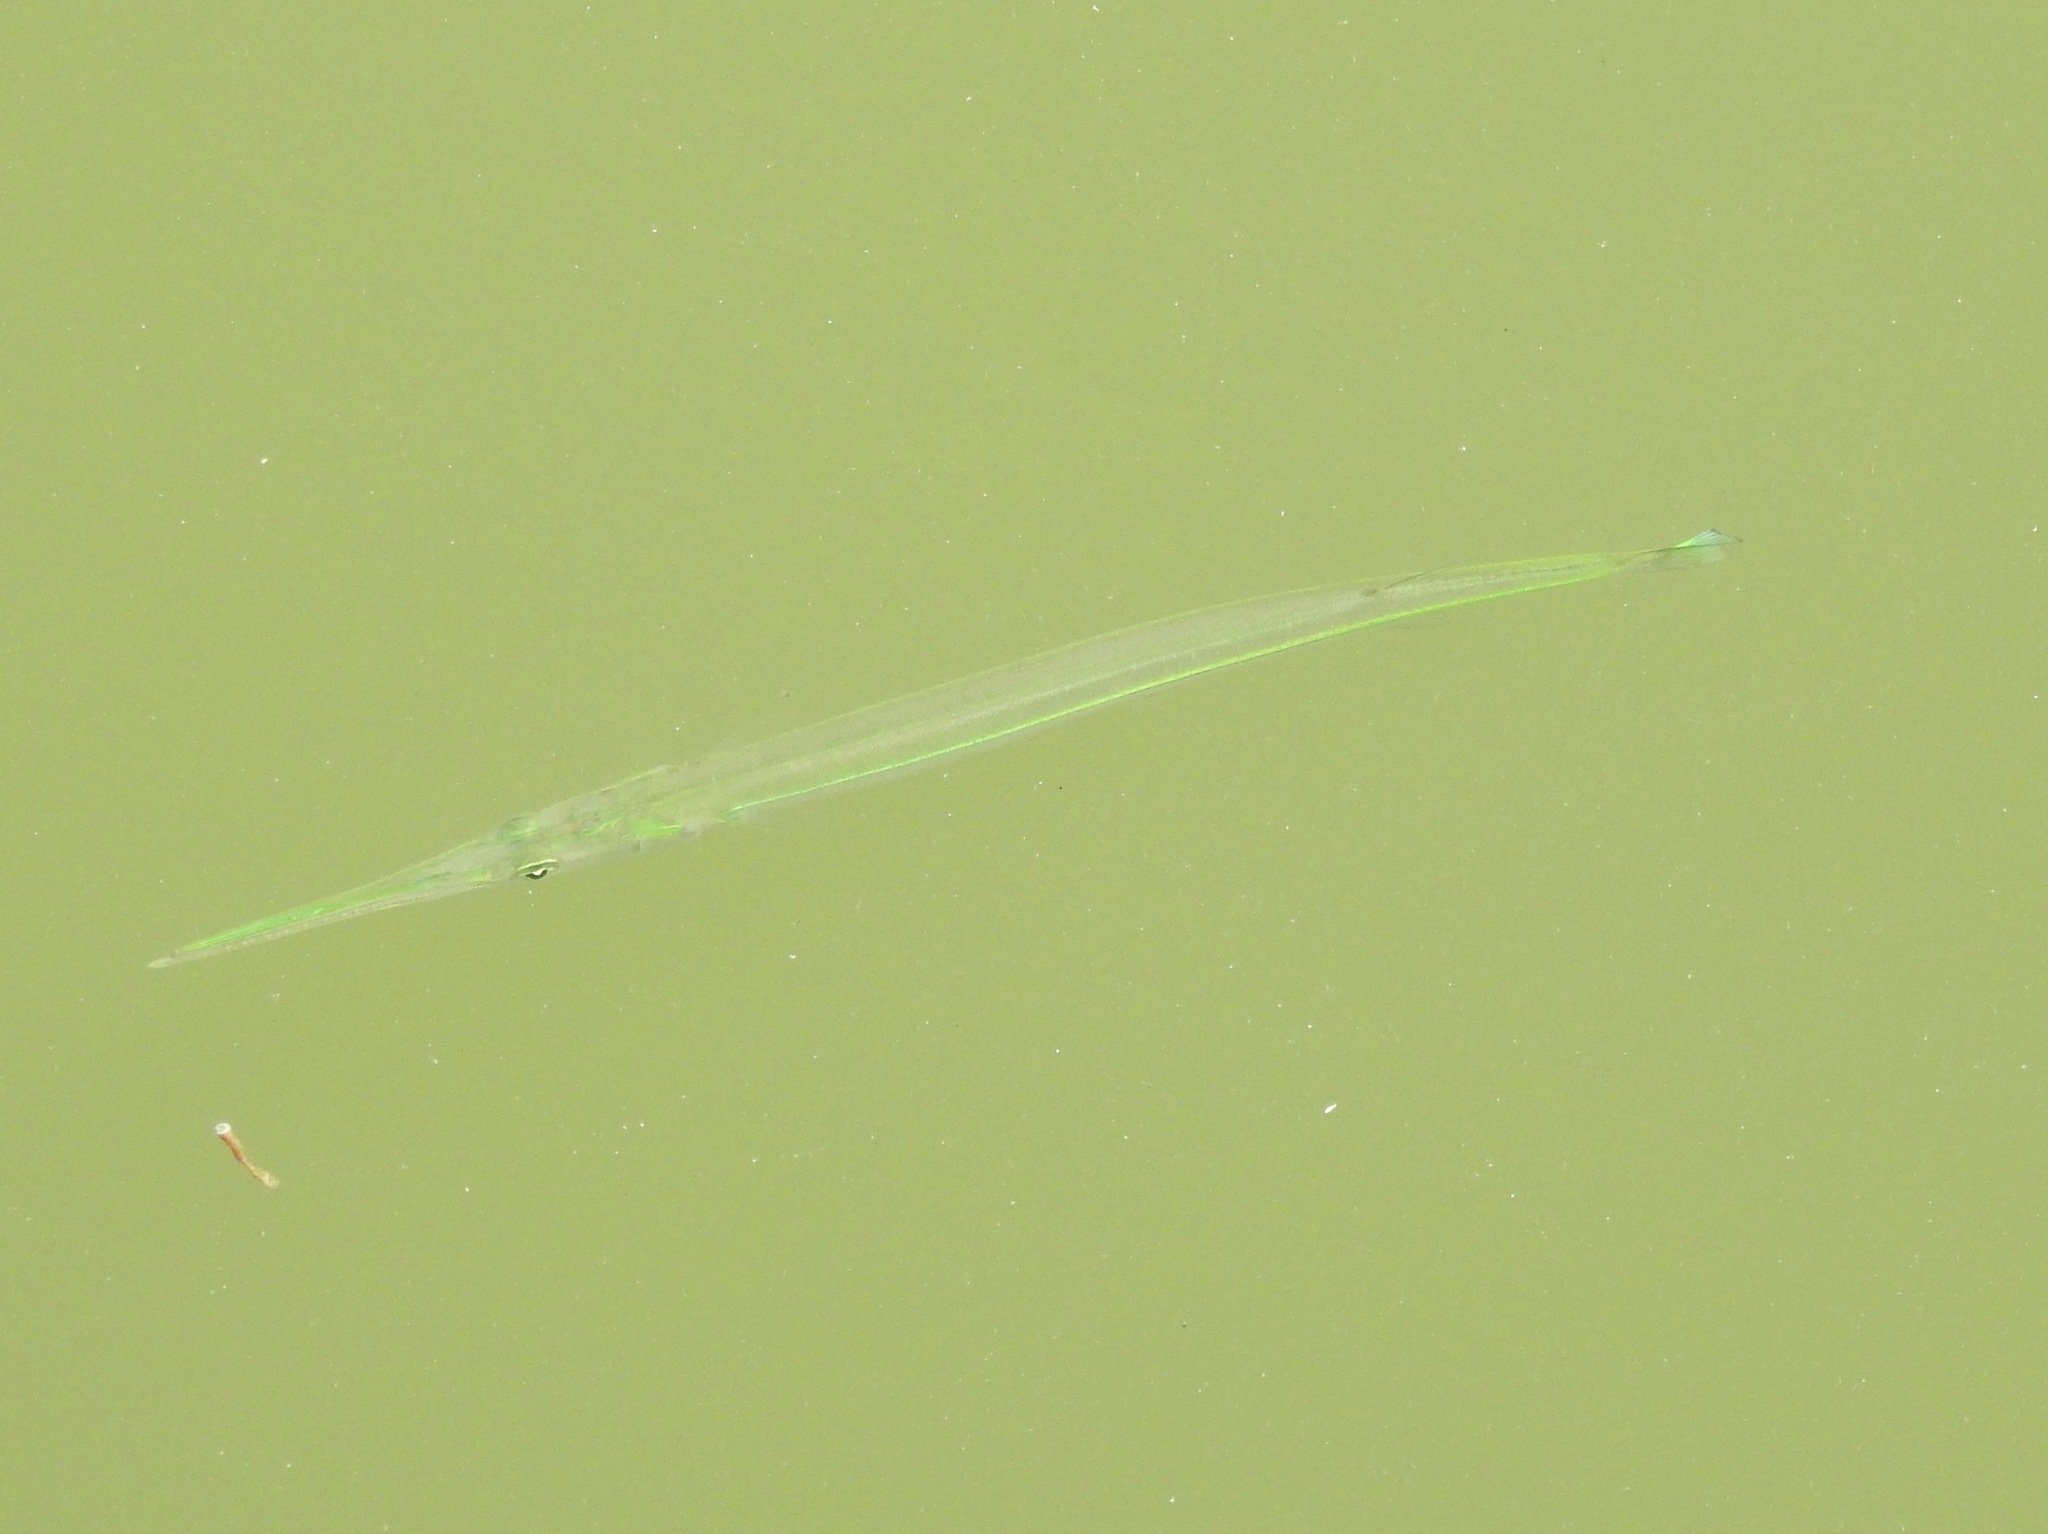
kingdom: Animalia
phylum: Chordata
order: Beloniformes
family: Belonidae
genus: Strongylura
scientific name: Strongylura marina
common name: Atlantic needlefish
